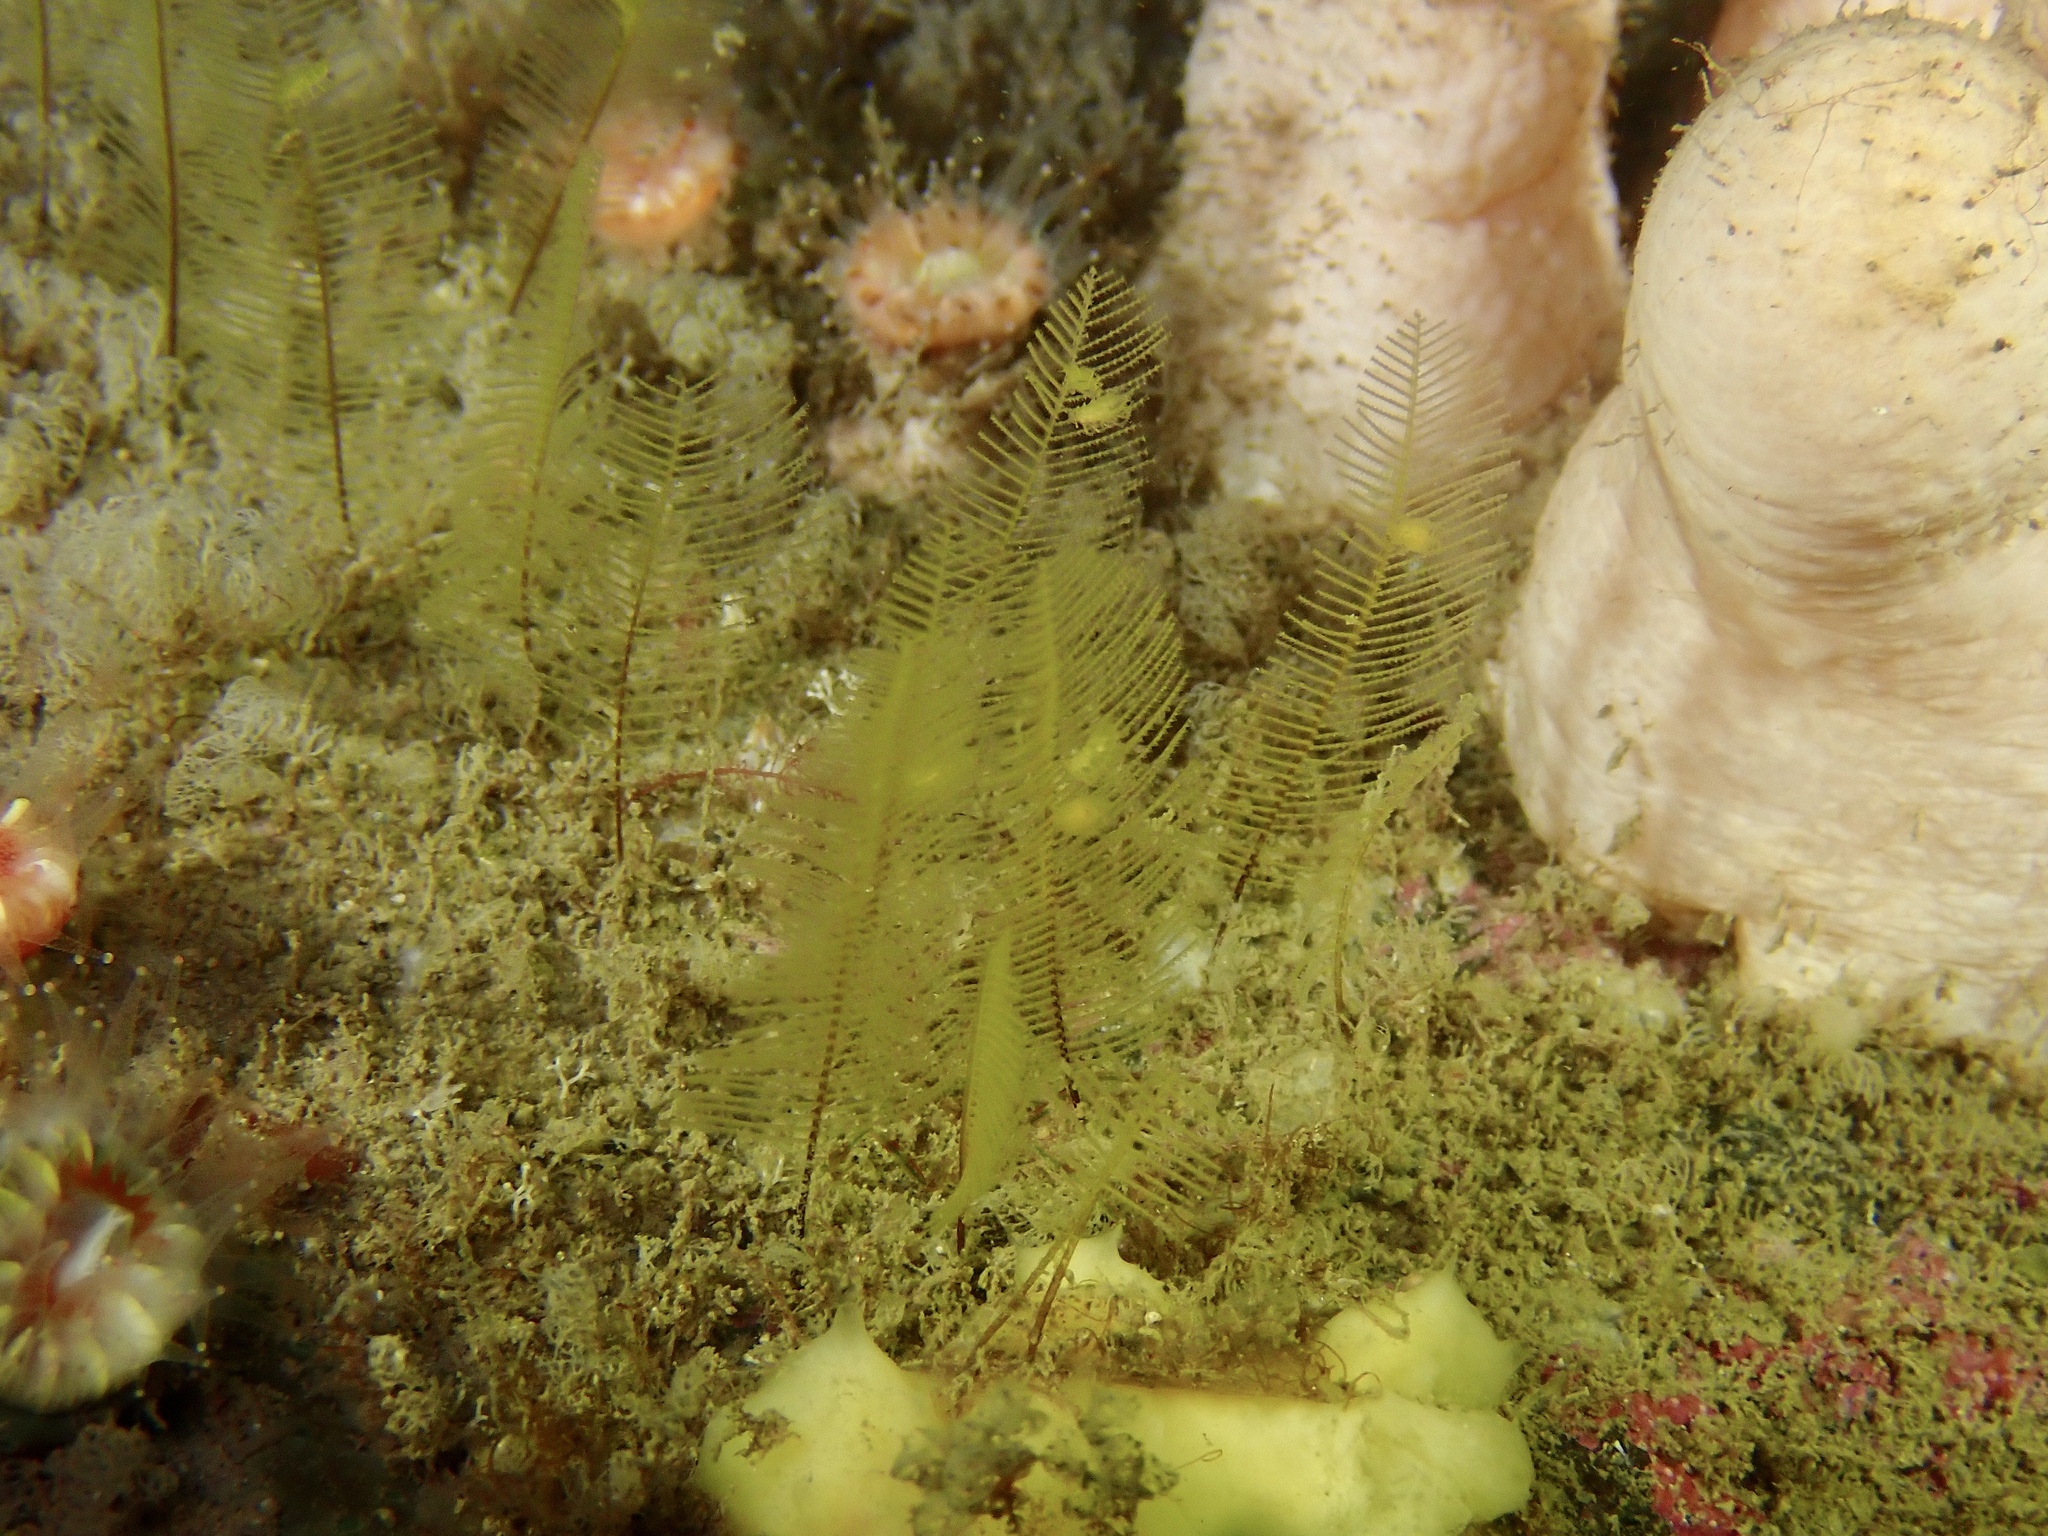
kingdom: Animalia
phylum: Cnidaria
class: Hydrozoa
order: Leptothecata
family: Aglaopheniidae
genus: Aglaophenia
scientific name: Aglaophenia tubulifera
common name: Plume hydroid
